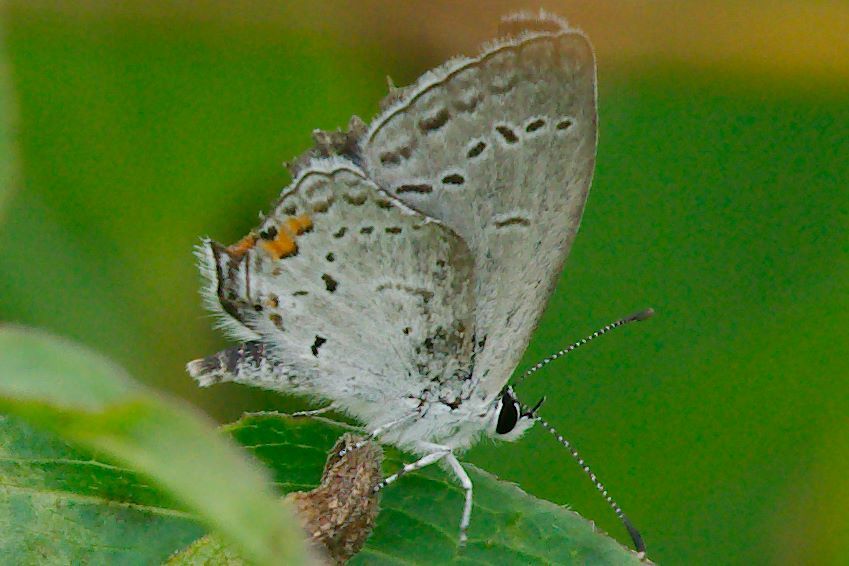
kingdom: Animalia
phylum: Arthropoda
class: Insecta
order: Lepidoptera
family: Lycaenidae
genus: Elkalyce
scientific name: Elkalyce comyntas
